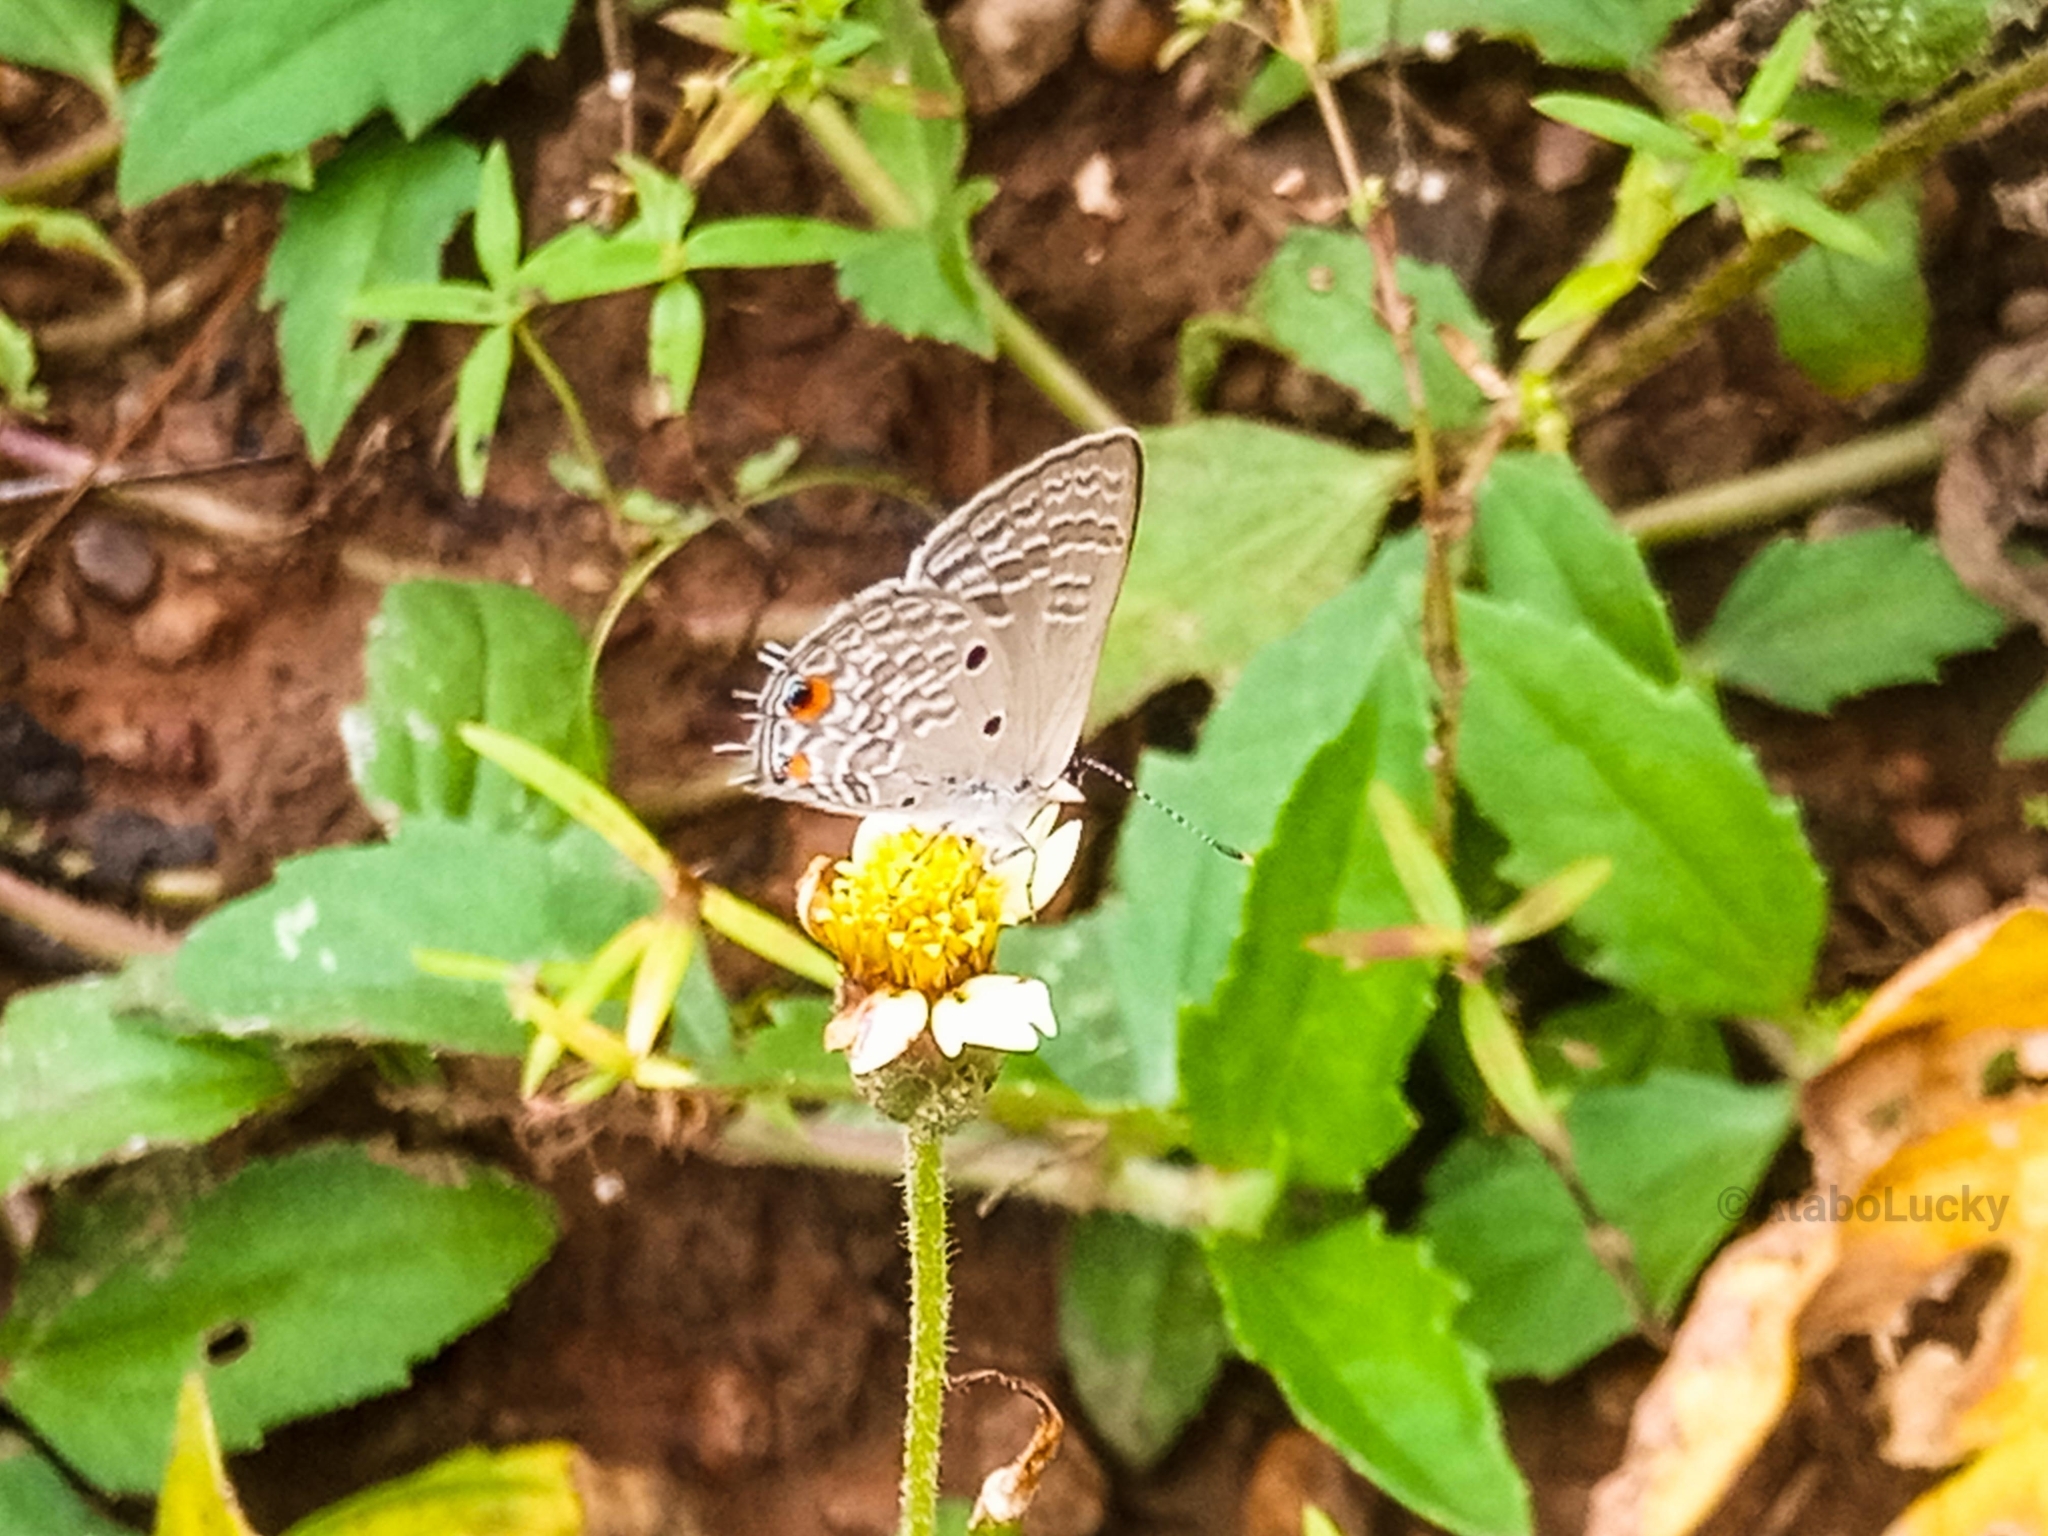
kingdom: Animalia
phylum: Arthropoda
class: Insecta
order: Lepidoptera
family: Lycaenidae
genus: Anthene
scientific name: Anthene lunulata
